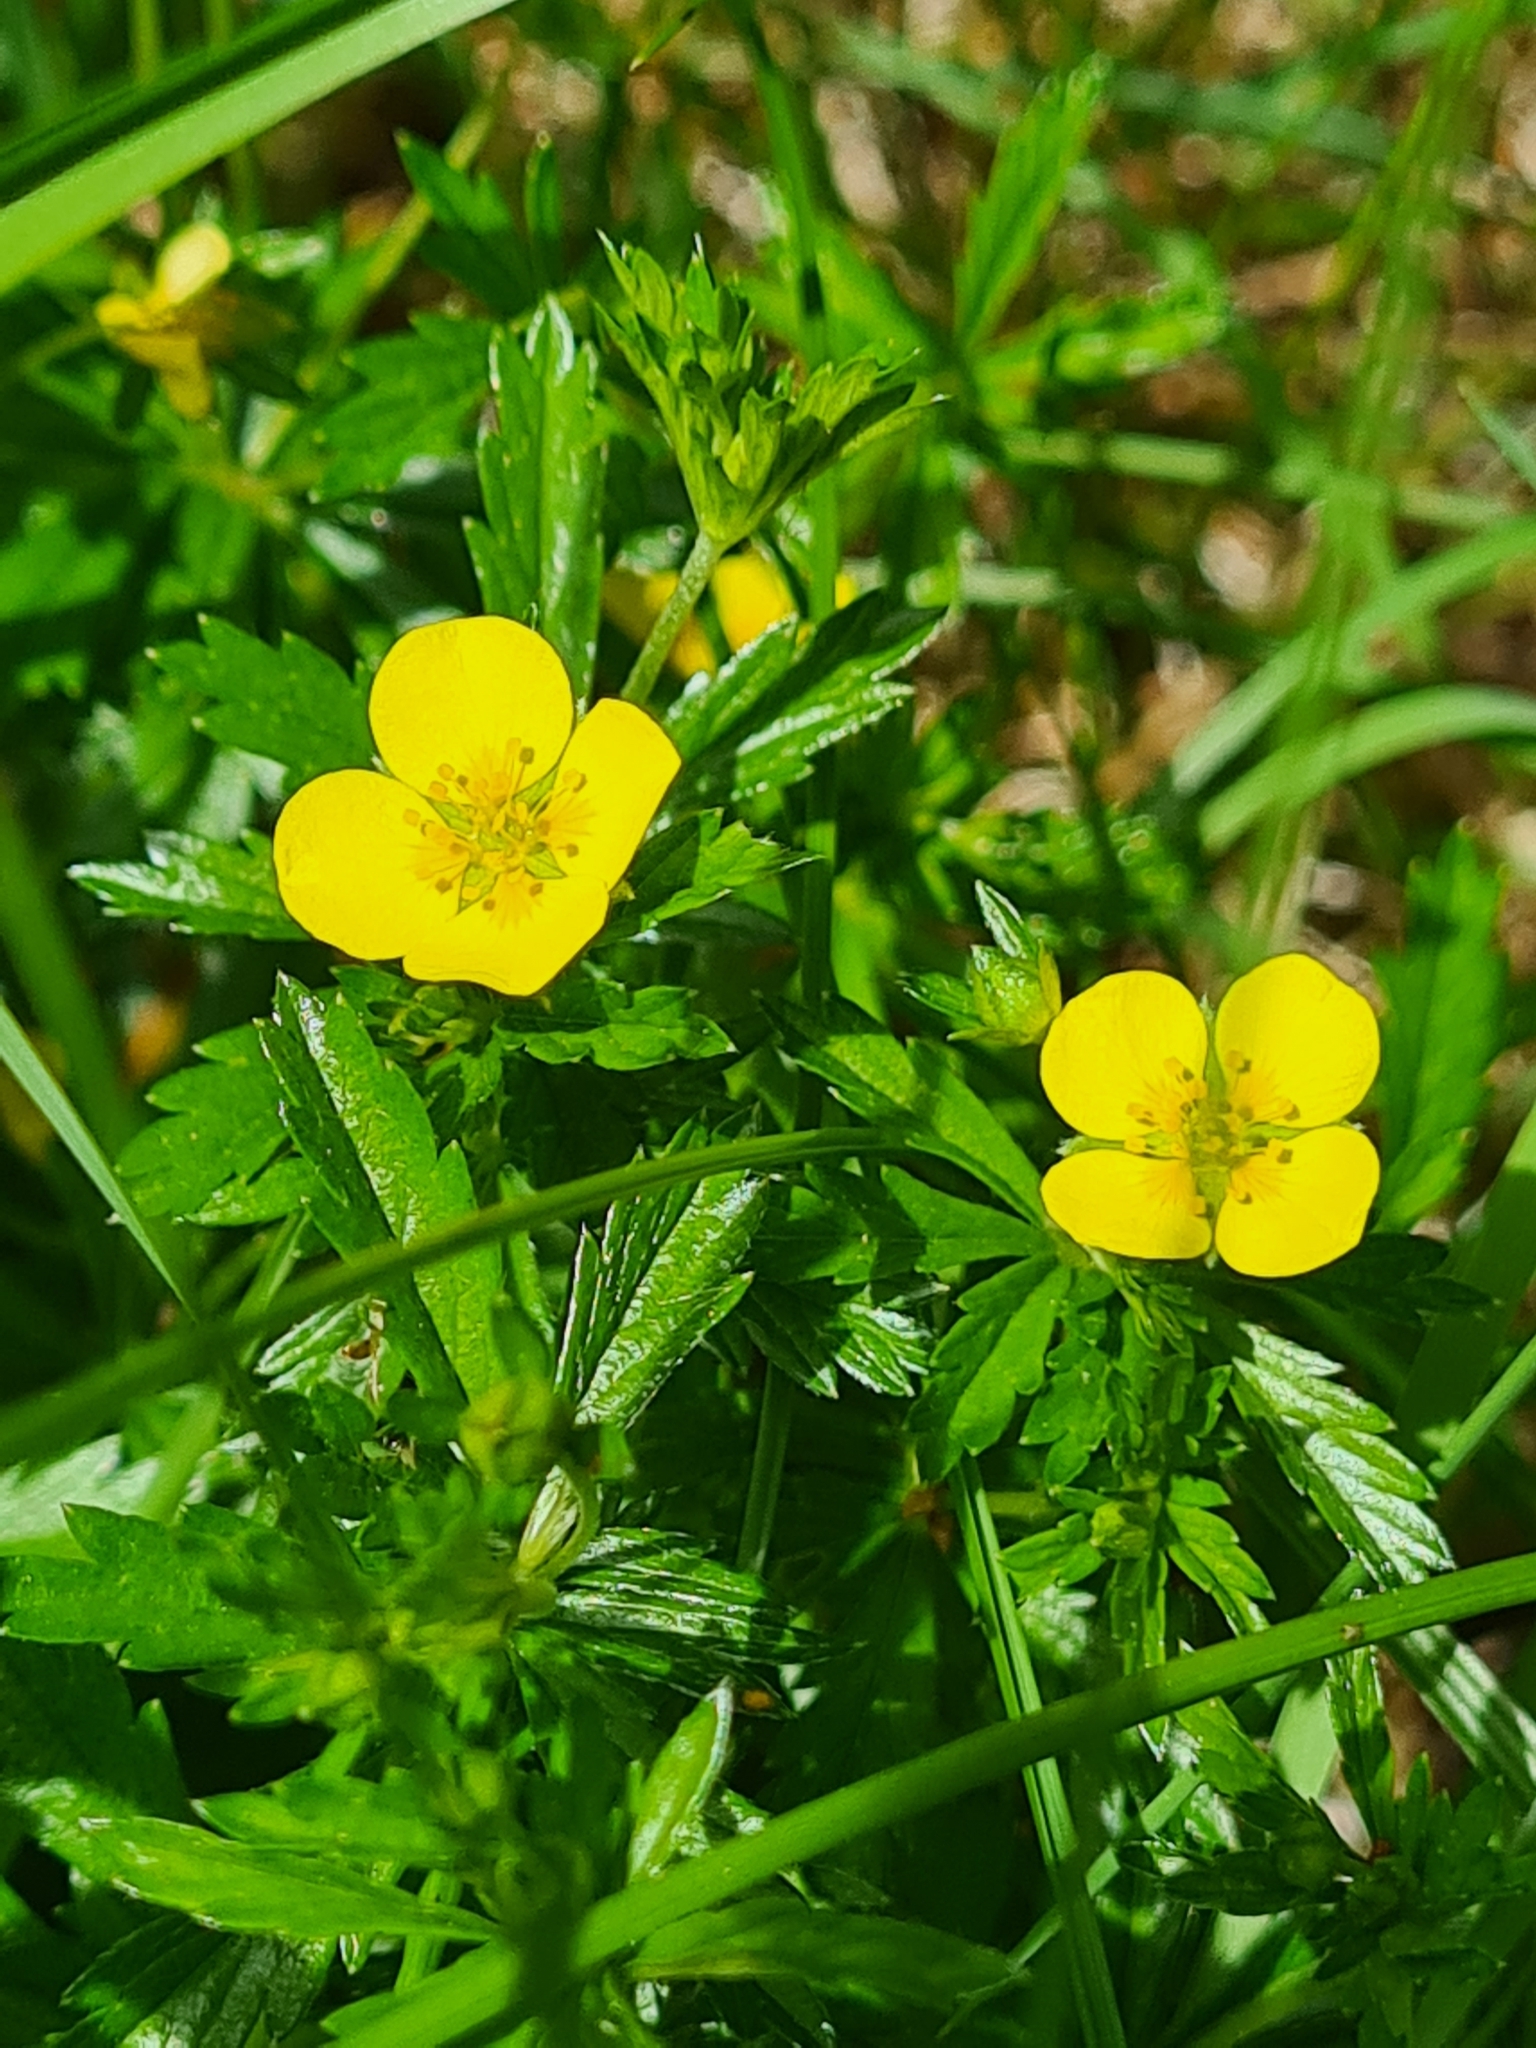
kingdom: Plantae
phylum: Tracheophyta
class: Magnoliopsida
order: Rosales
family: Rosaceae
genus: Potentilla
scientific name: Potentilla erecta
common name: Tormentil
